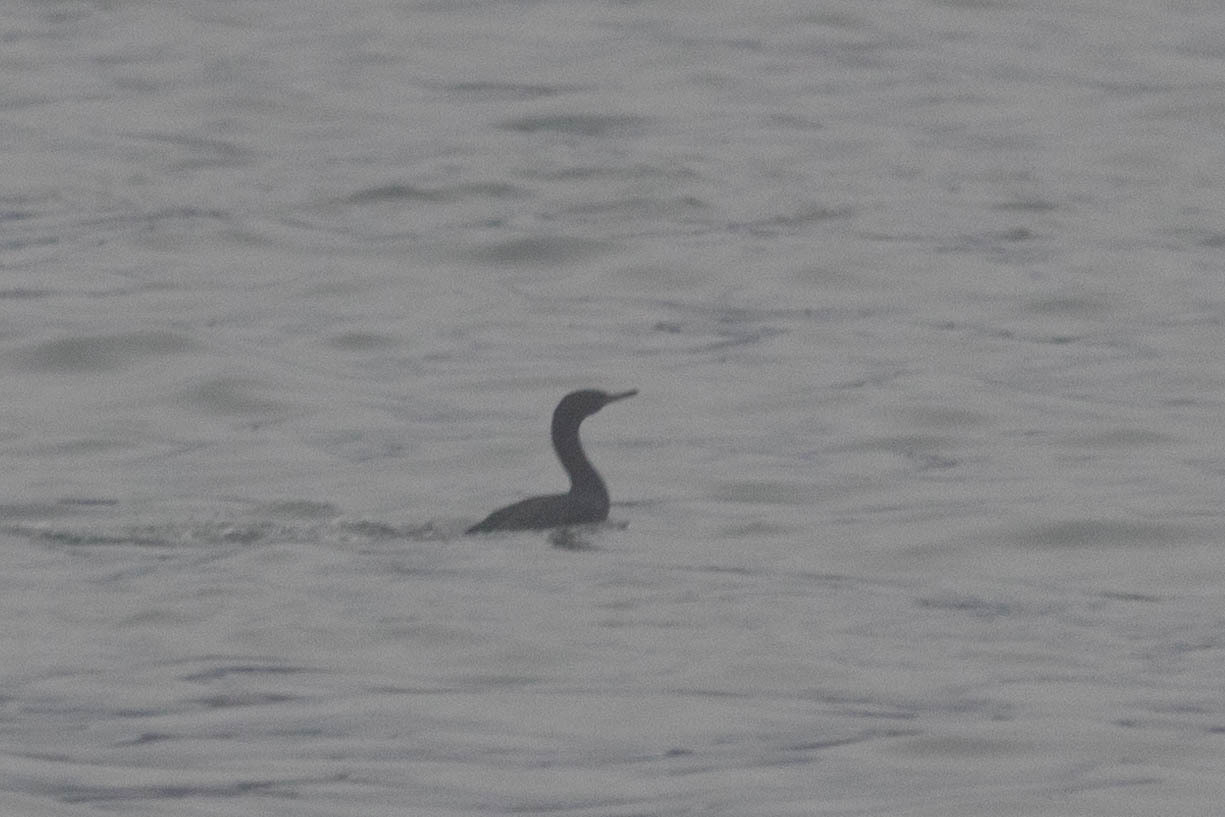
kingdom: Animalia
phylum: Chordata
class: Aves
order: Suliformes
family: Phalacrocoracidae
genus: Phalacrocorax
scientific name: Phalacrocorax pelagicus
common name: Pelagic cormorant
